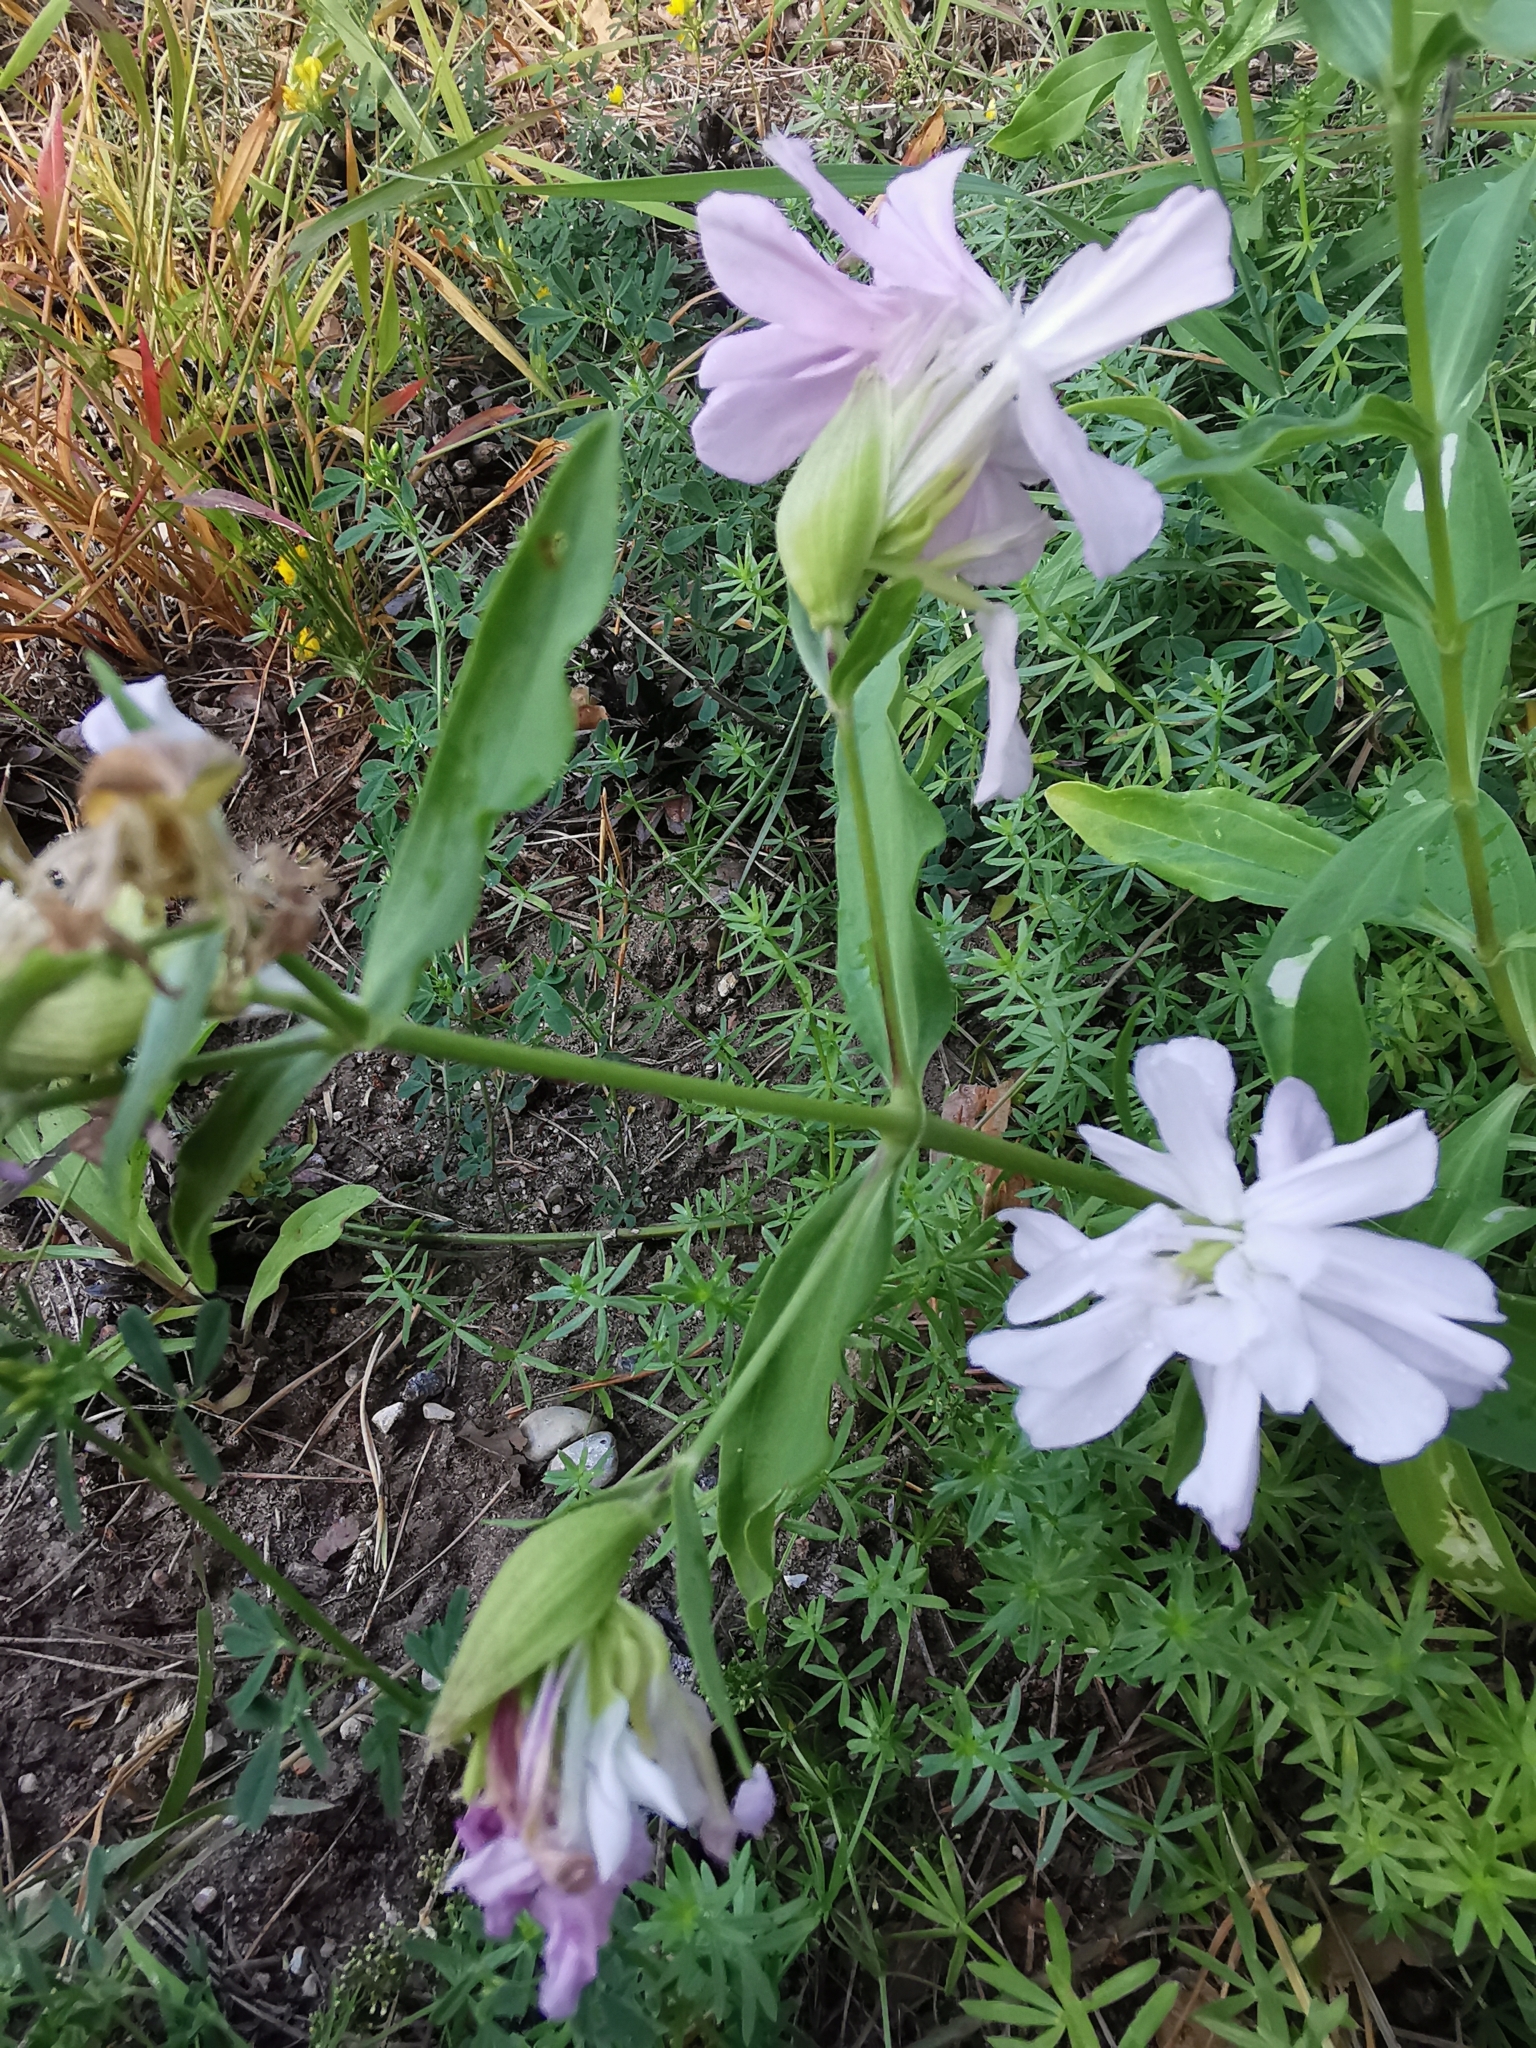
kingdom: Plantae
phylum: Tracheophyta
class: Magnoliopsida
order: Caryophyllales
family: Caryophyllaceae
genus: Saponaria
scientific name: Saponaria officinalis
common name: Soapwort
